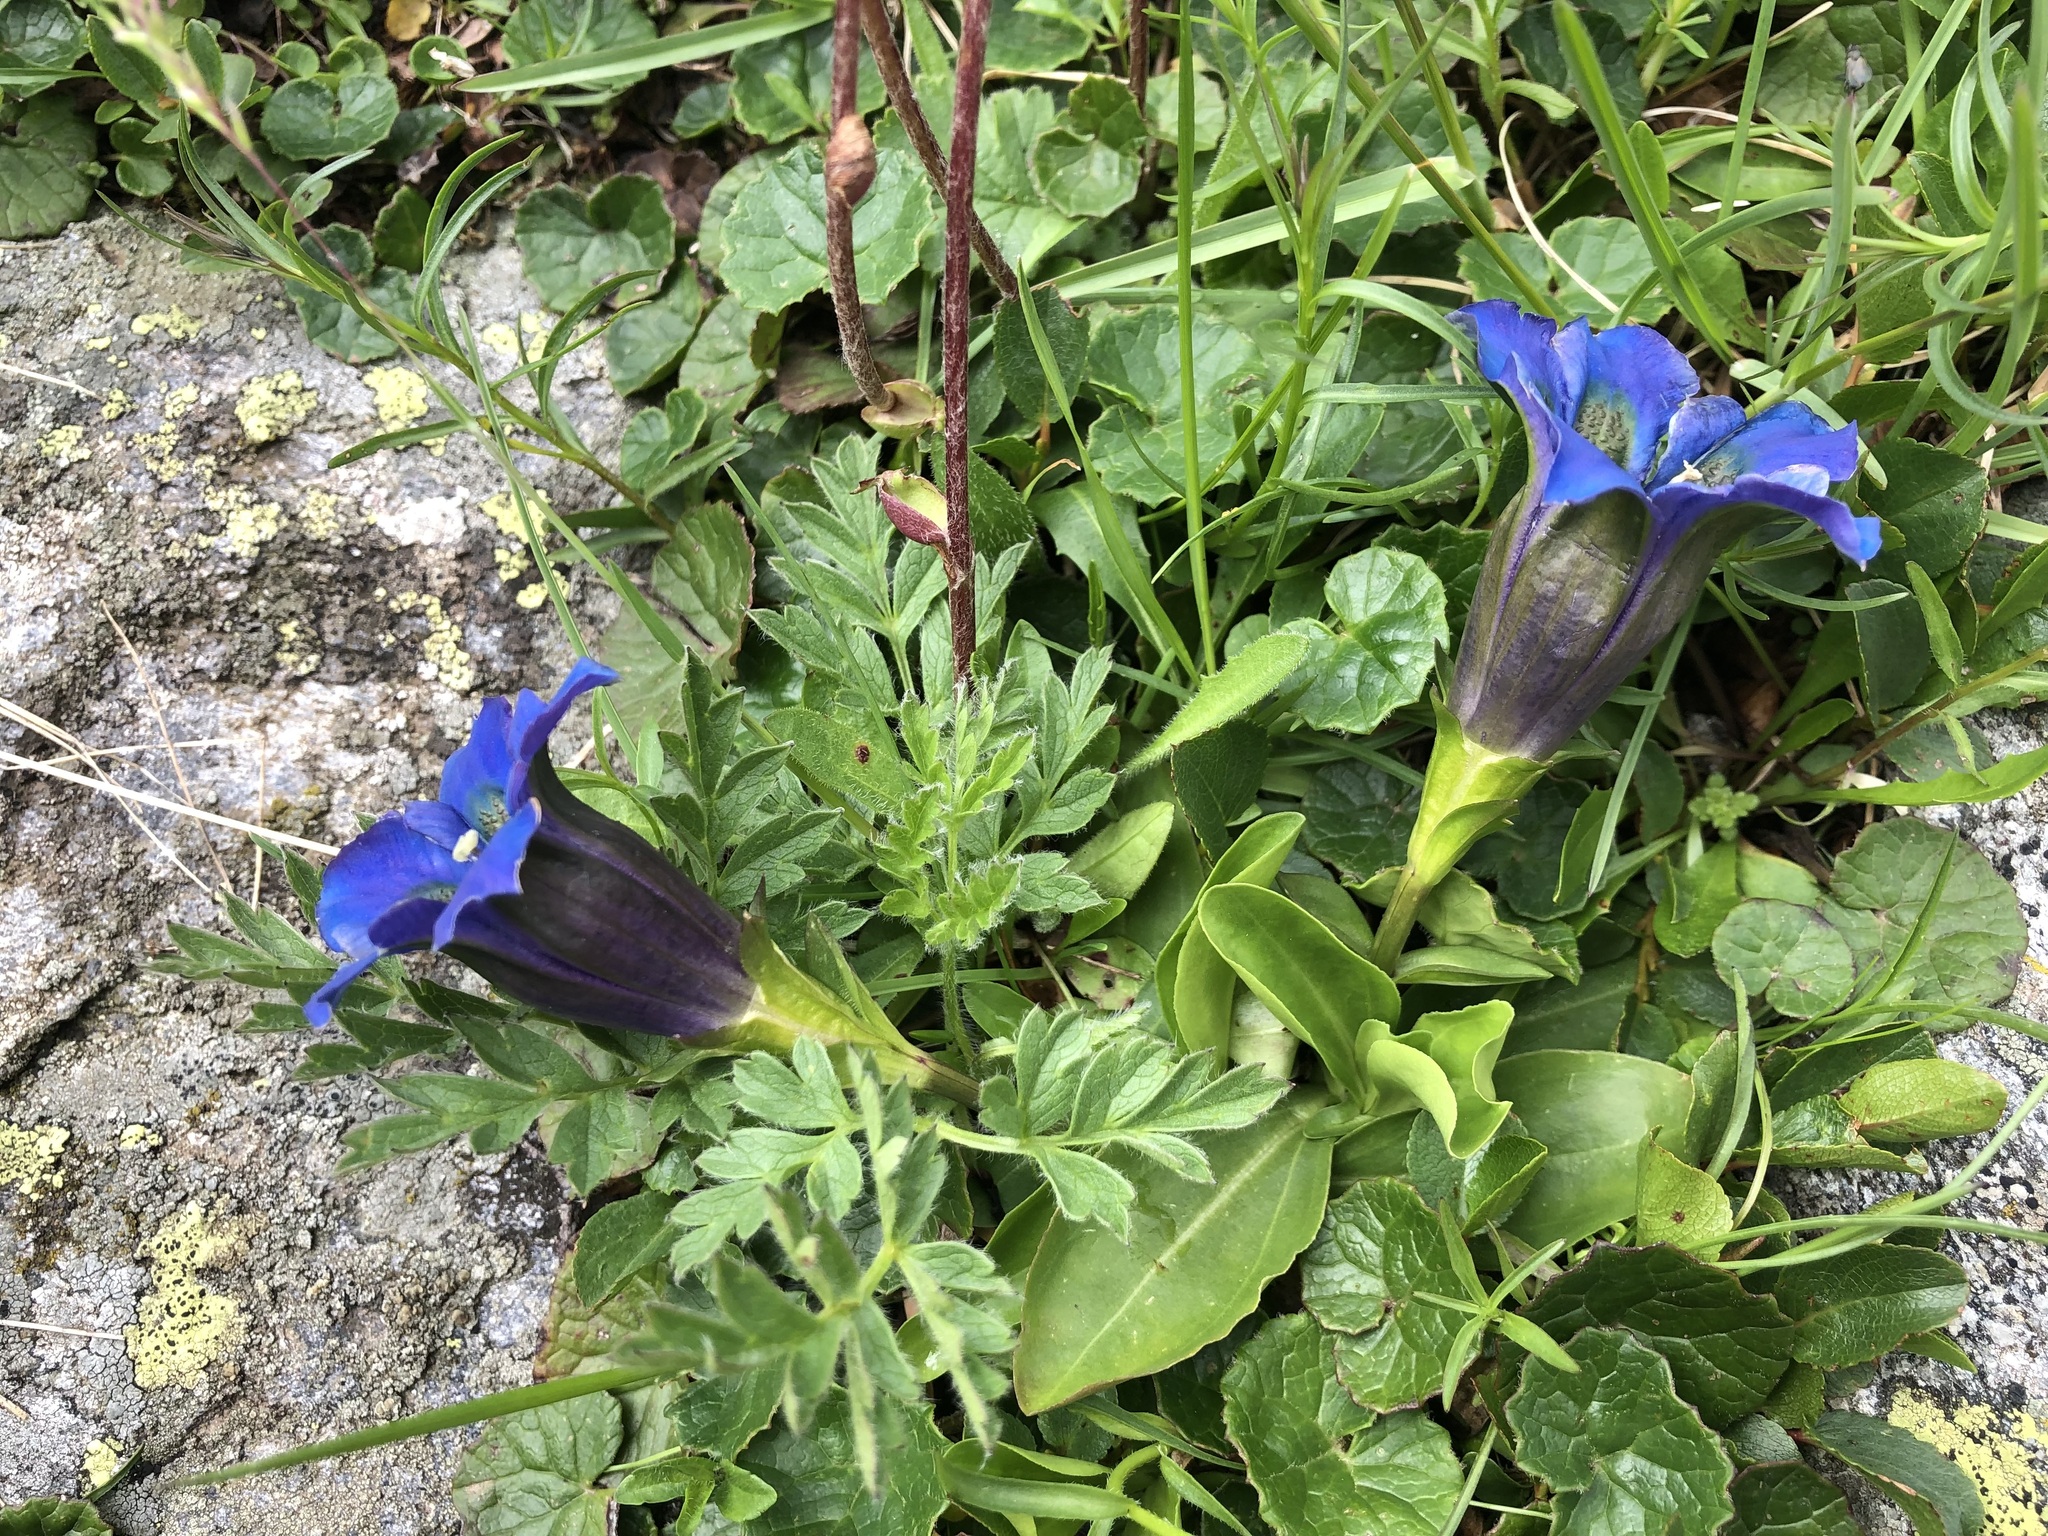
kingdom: Plantae
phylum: Tracheophyta
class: Magnoliopsida
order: Gentianales
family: Gentianaceae
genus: Gentiana
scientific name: Gentiana acaulis
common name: Trumpet gentian
